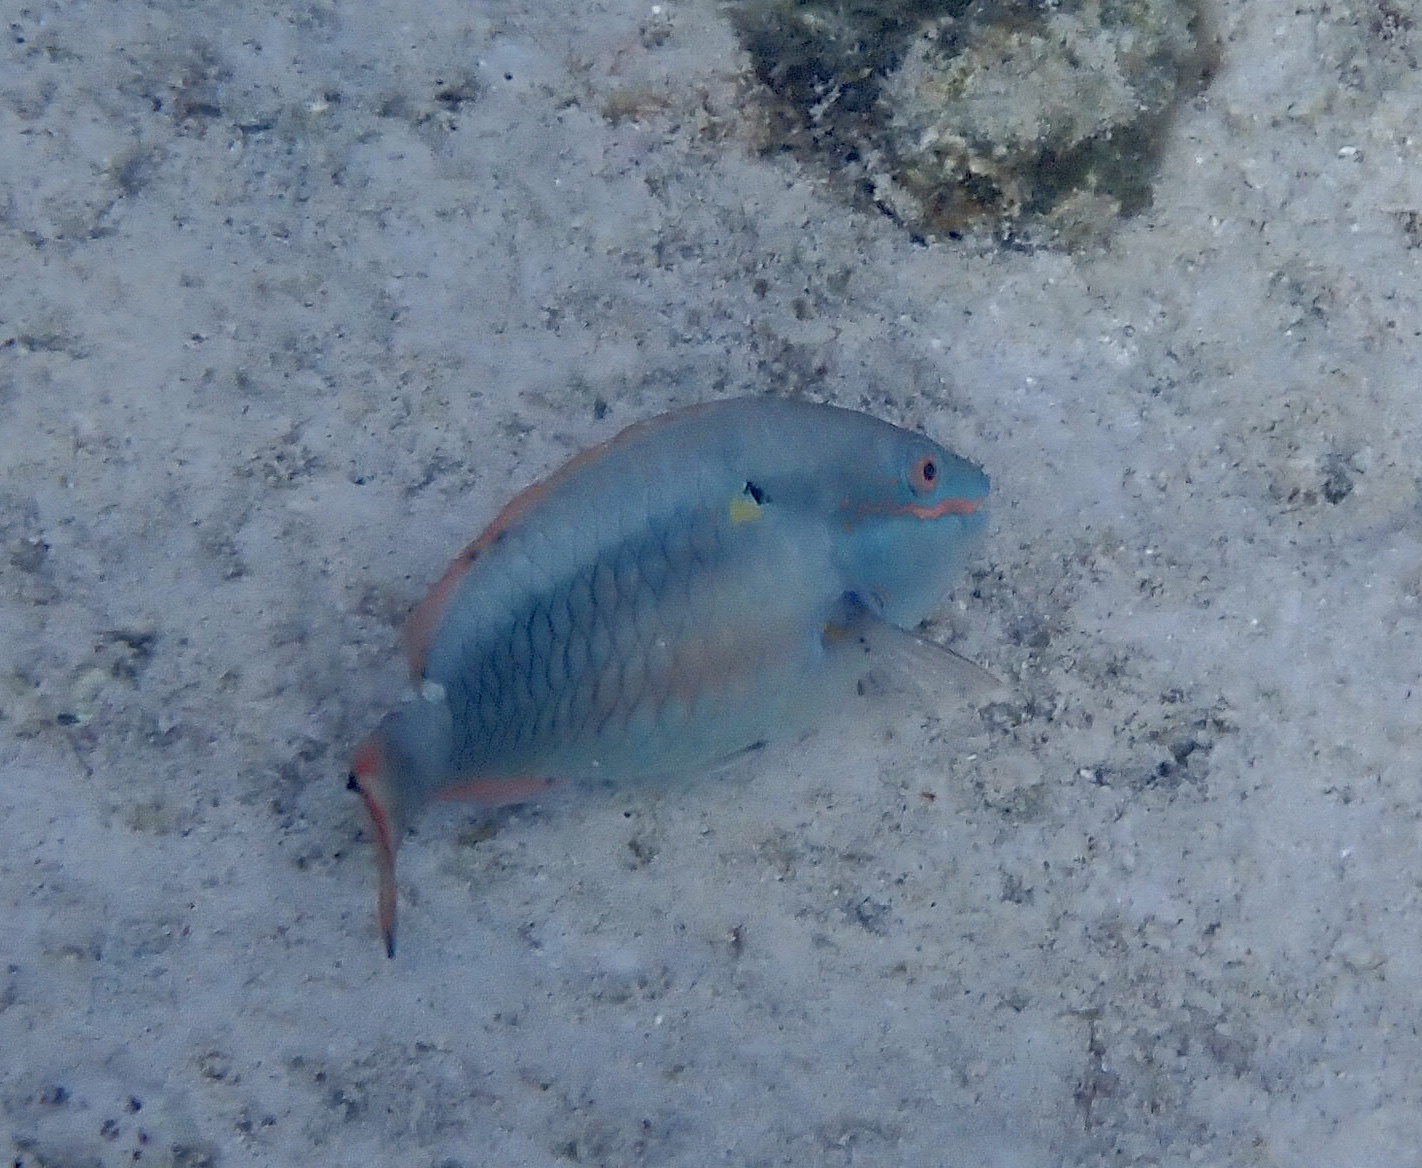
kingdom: Animalia
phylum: Chordata
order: Perciformes
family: Scaridae
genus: Sparisoma
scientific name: Sparisoma aurofrenatum
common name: Redband parrotfish
